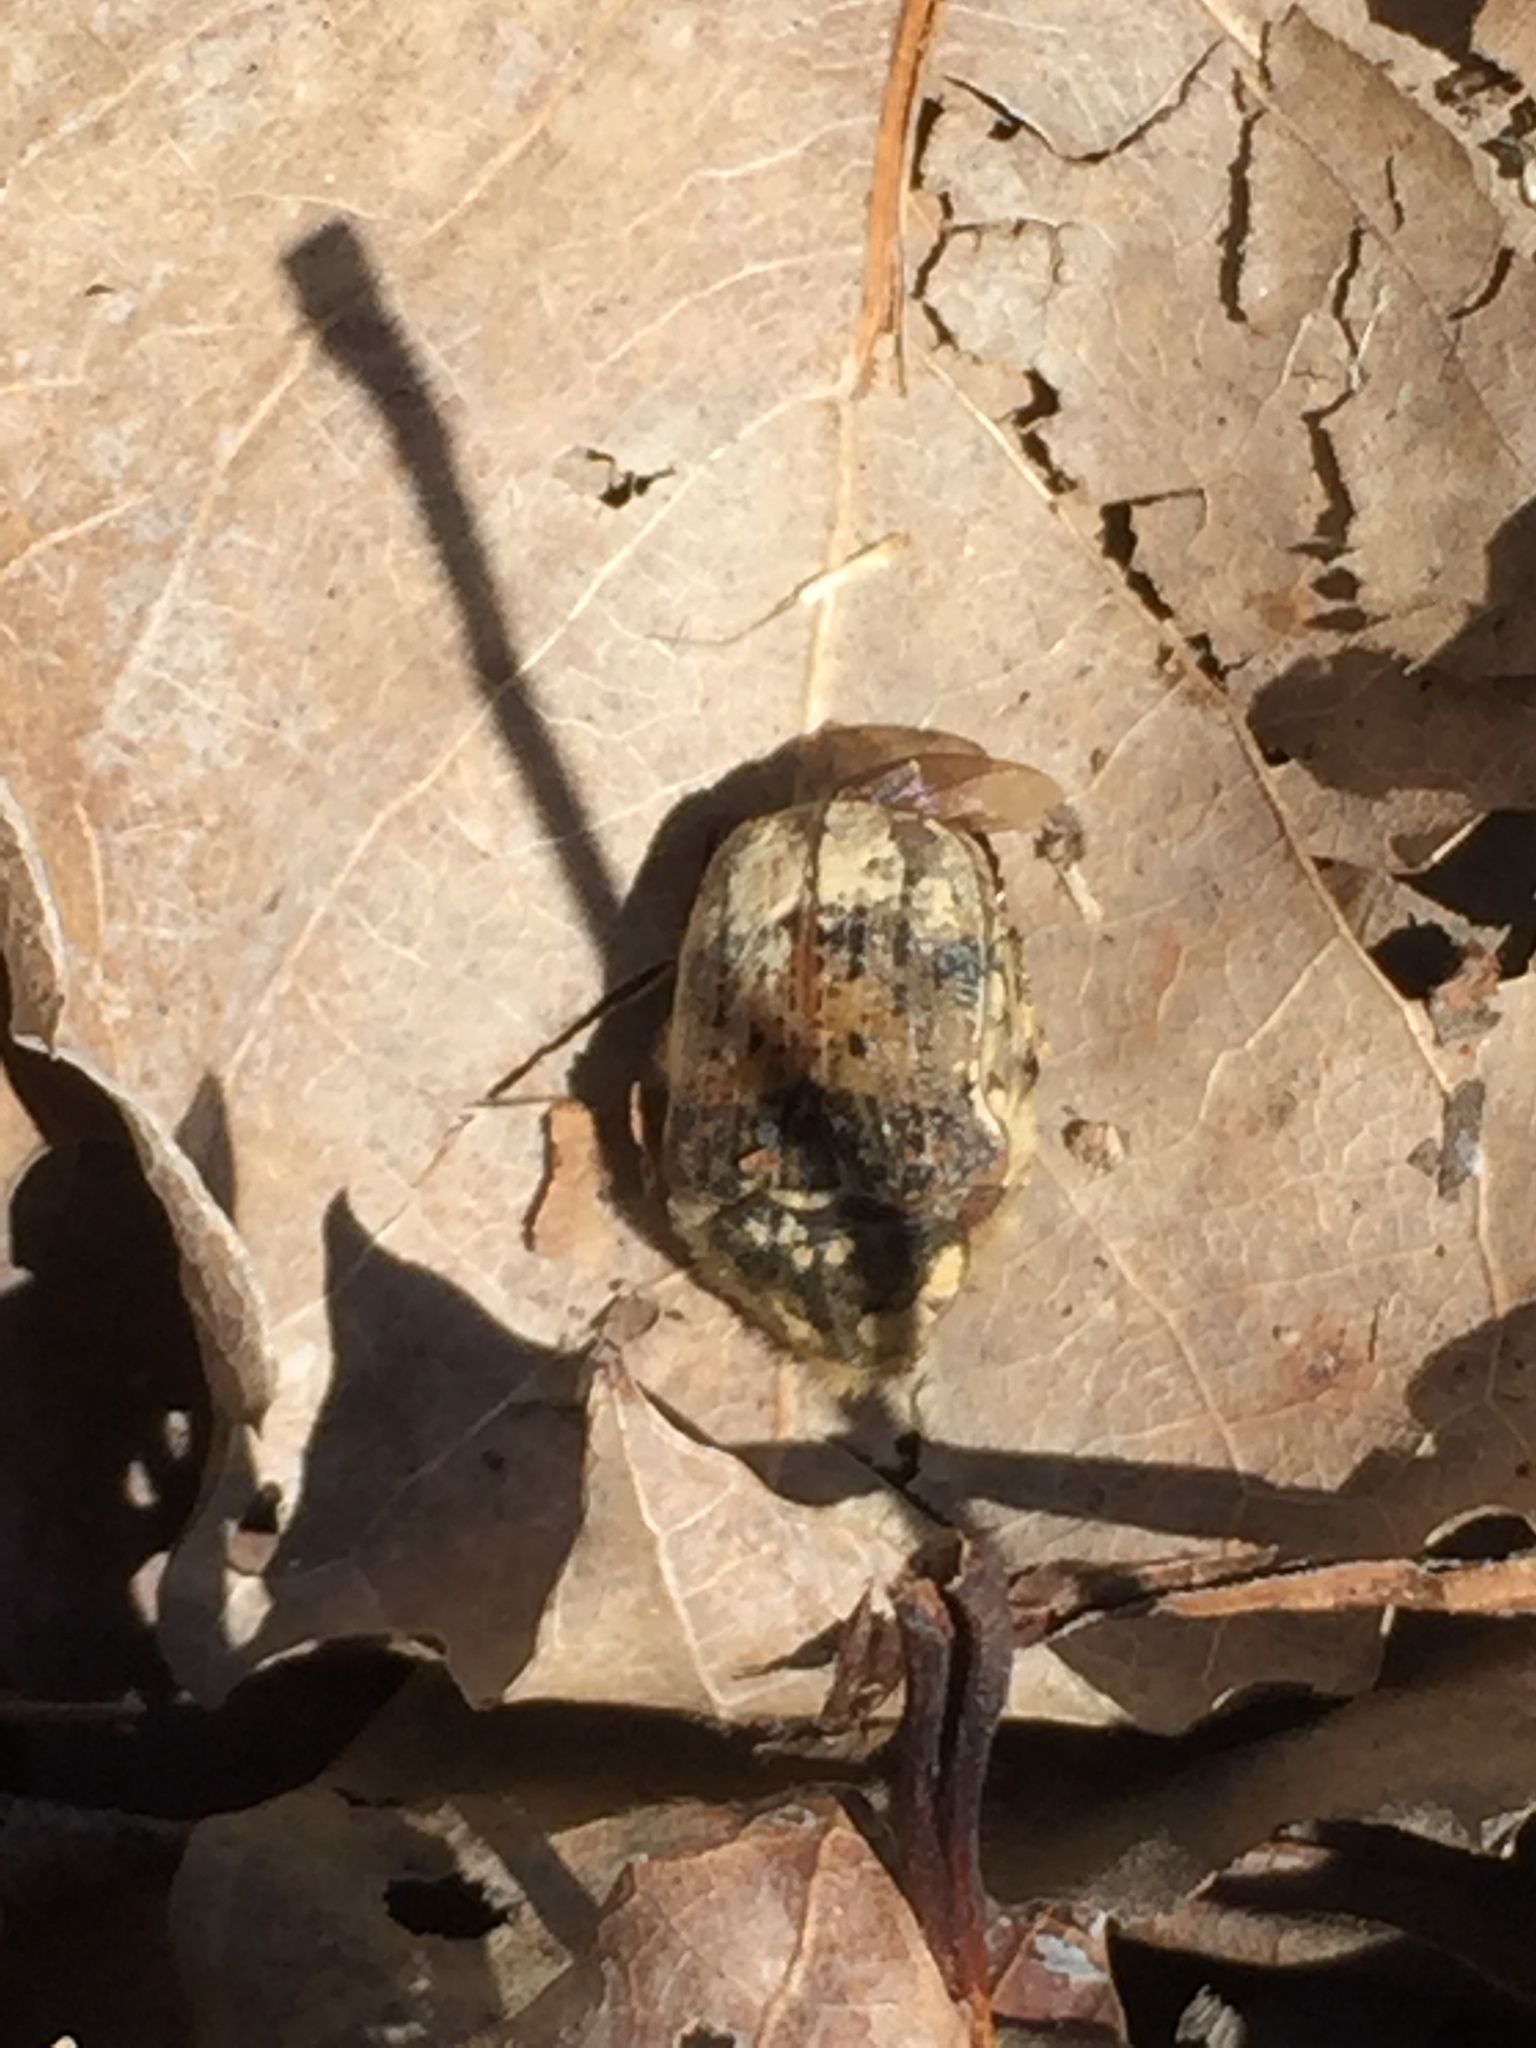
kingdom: Animalia
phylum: Arthropoda
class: Insecta
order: Coleoptera
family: Scarabaeidae
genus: Euphoria
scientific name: Euphoria inda
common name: Bumble flower beetle
